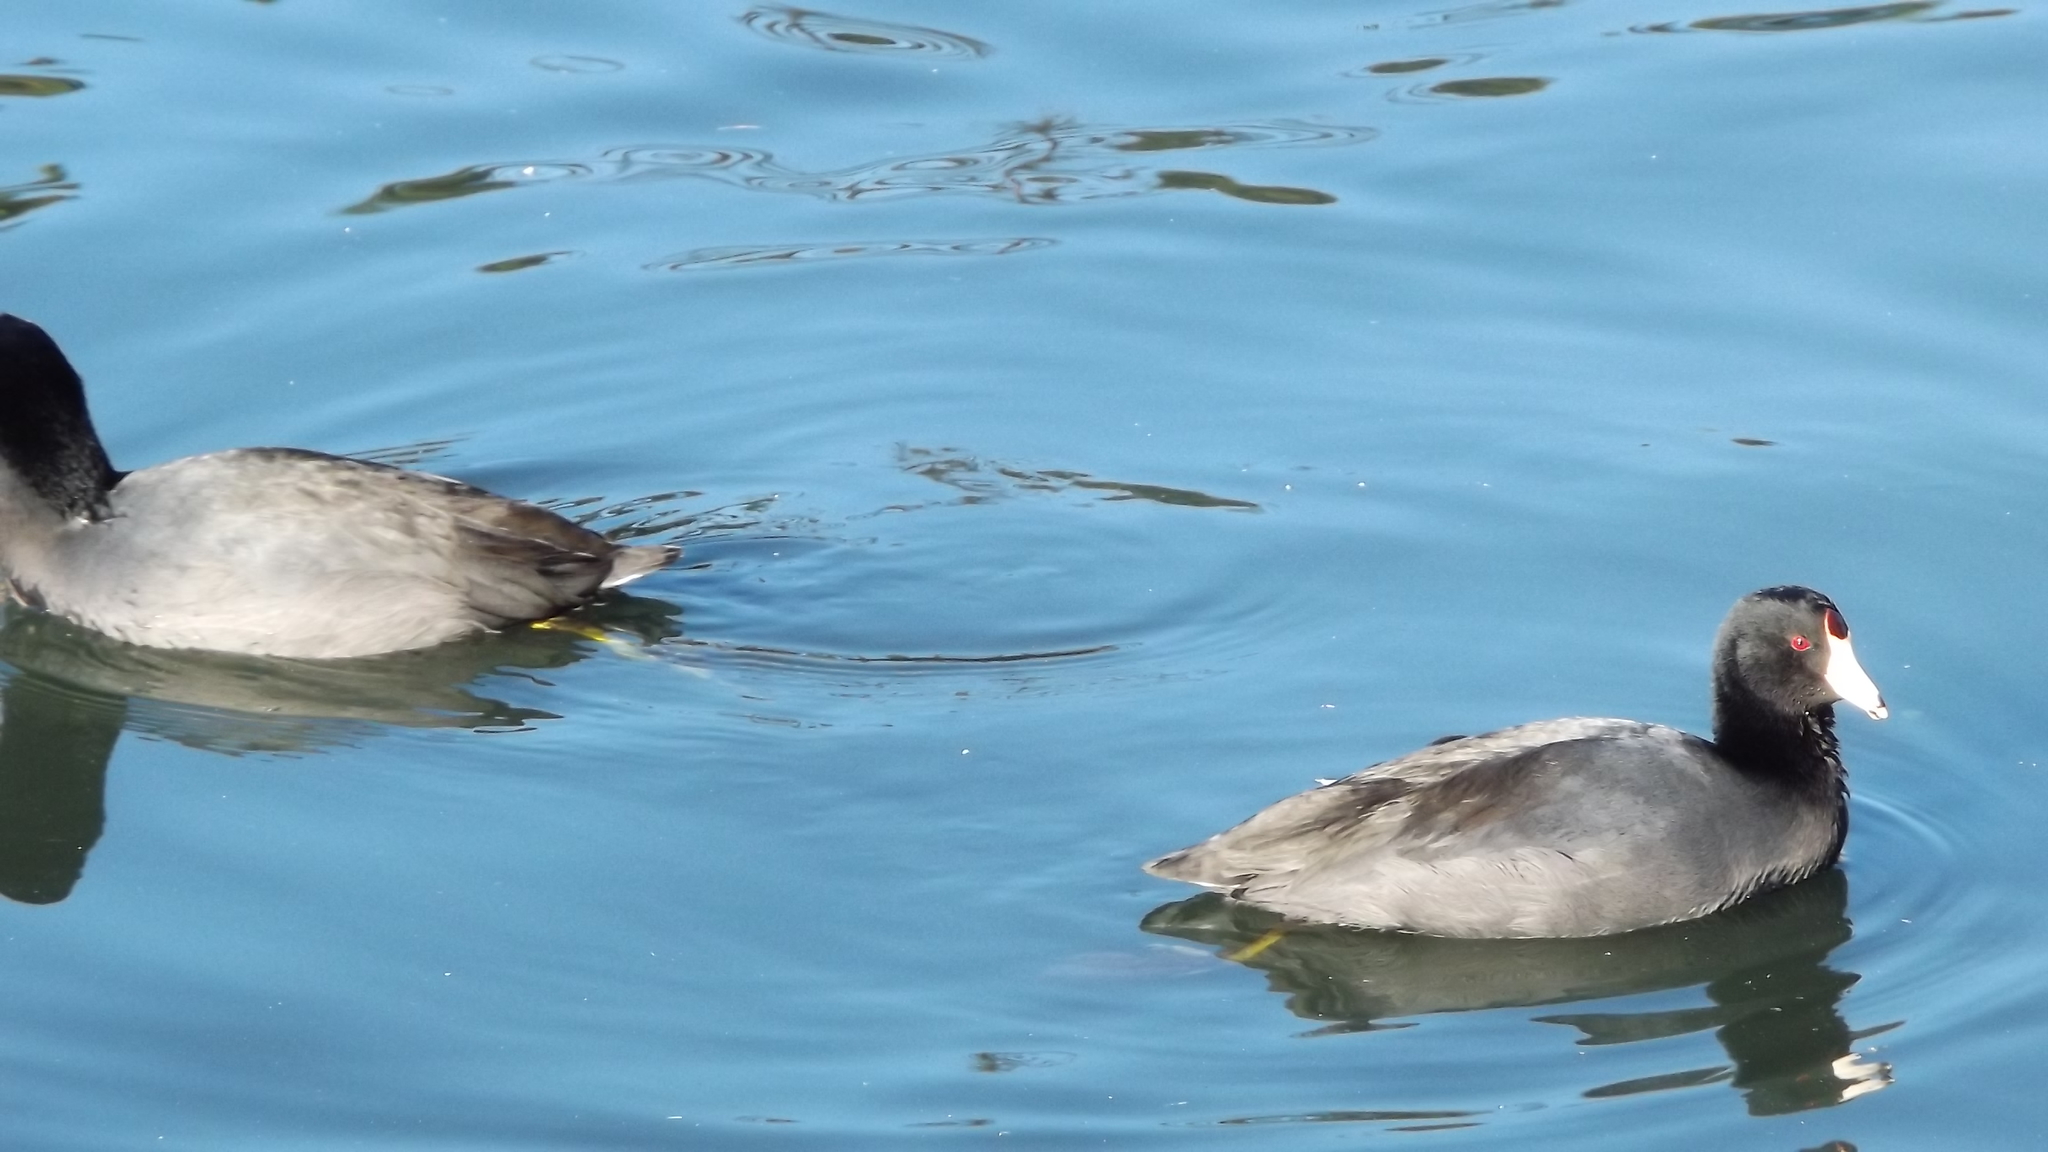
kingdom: Animalia
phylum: Chordata
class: Aves
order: Gruiformes
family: Rallidae
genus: Fulica
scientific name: Fulica americana
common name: American coot
